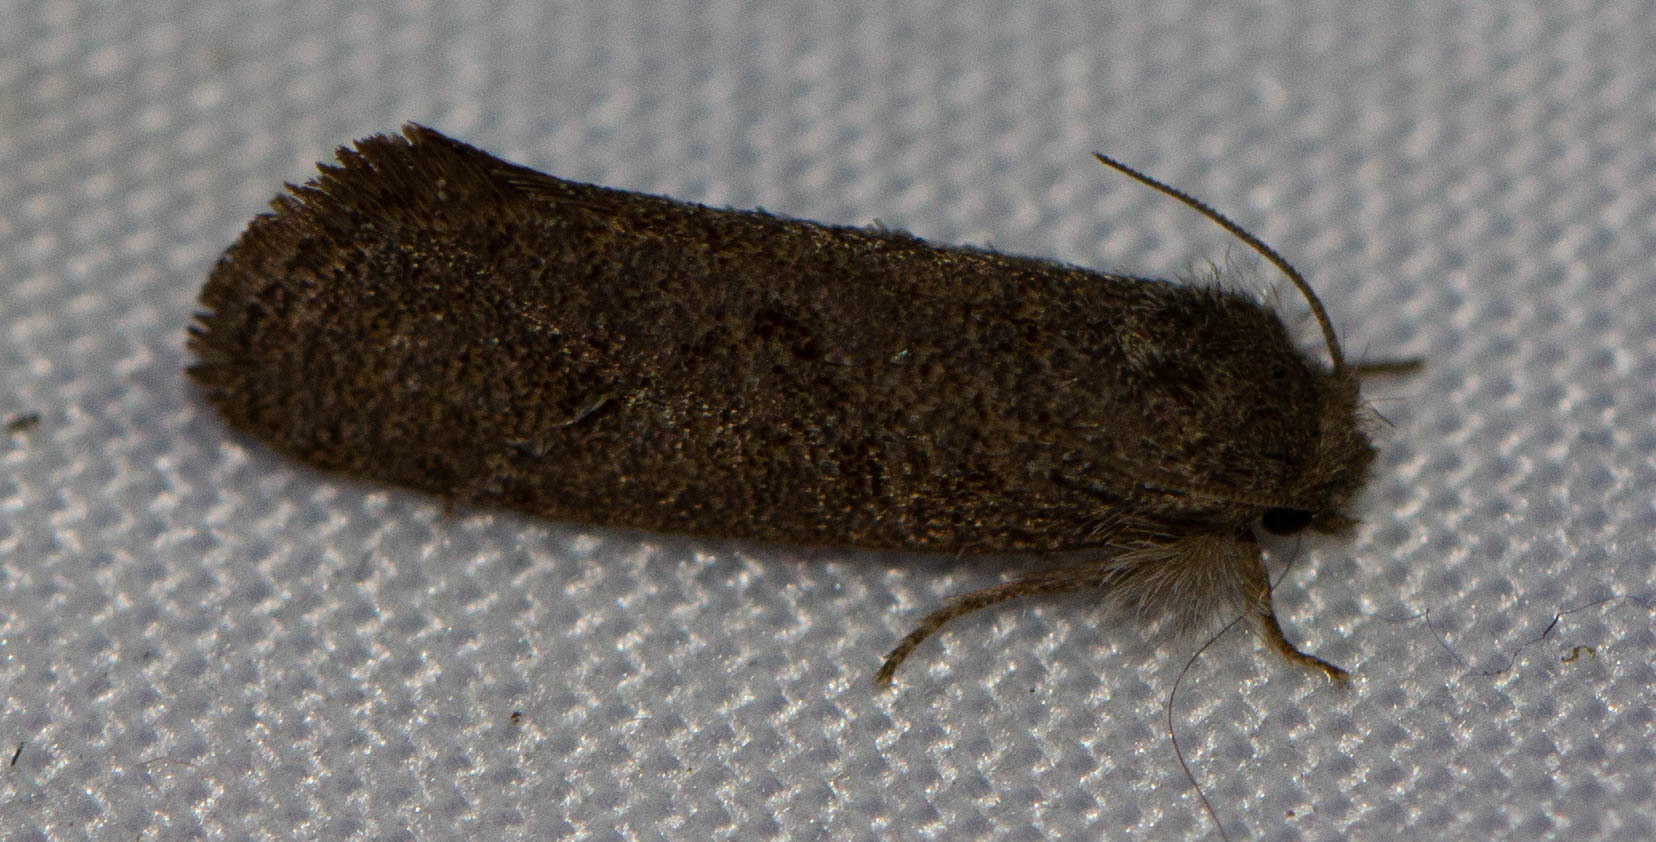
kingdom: Animalia
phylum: Arthropoda
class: Insecta
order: Lepidoptera
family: Tineidae
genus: Acrolophus
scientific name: Acrolophus heppneri
